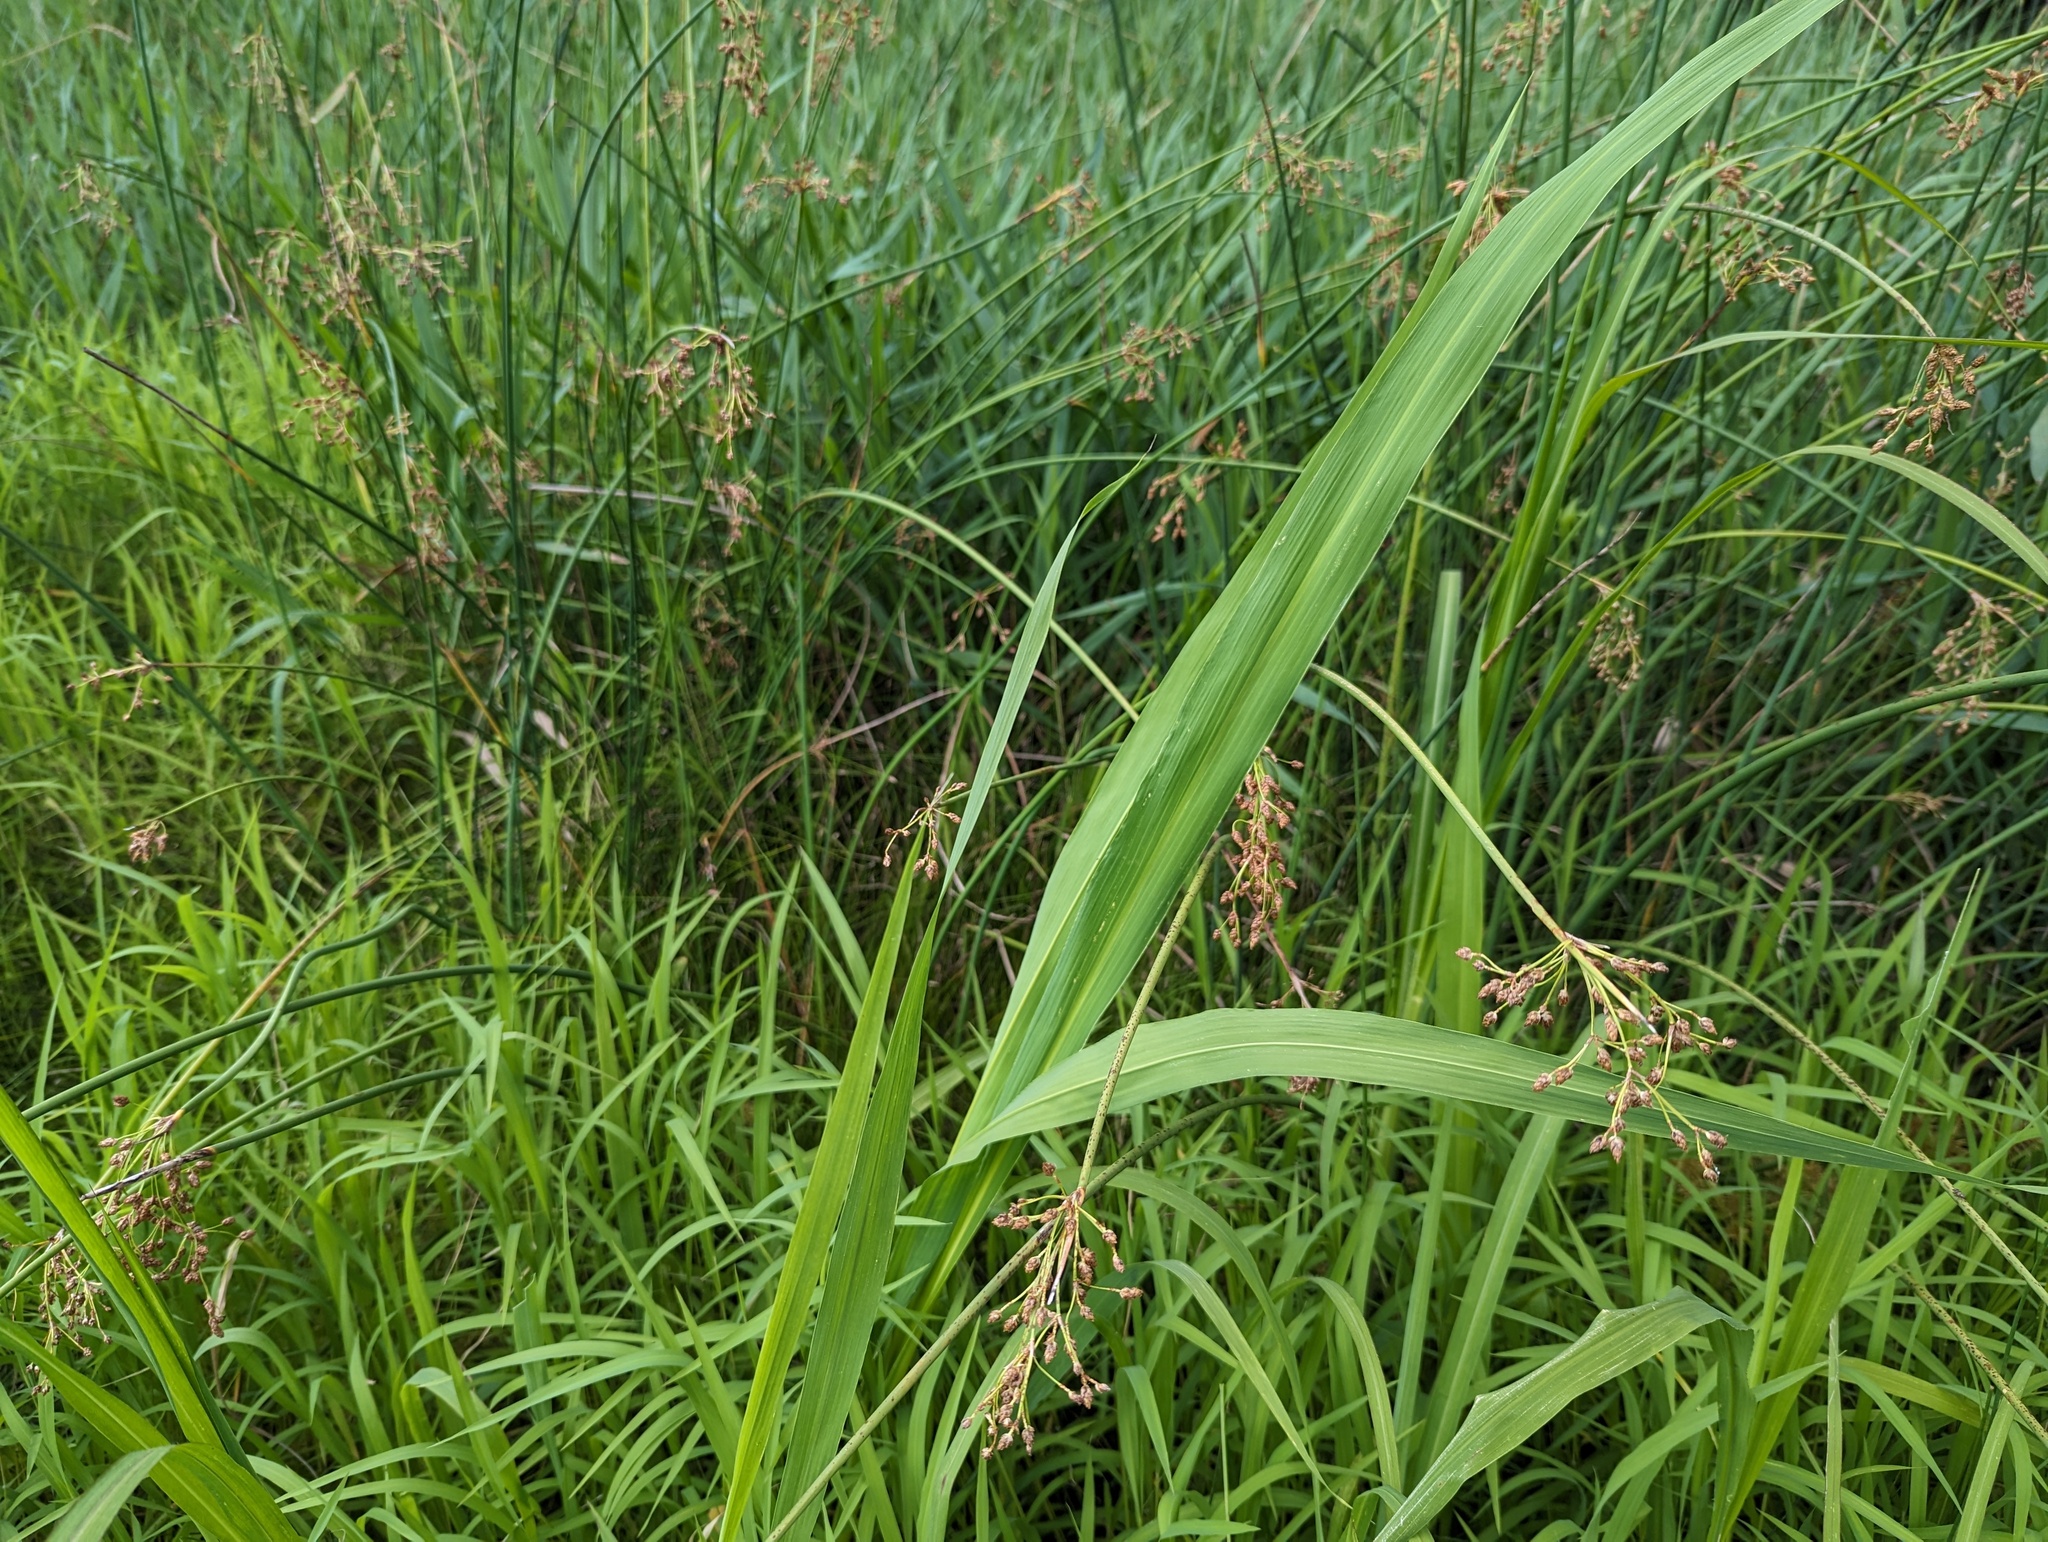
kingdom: Plantae
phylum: Tracheophyta
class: Liliopsida
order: Poales
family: Poaceae
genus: Zizania
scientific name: Zizania aquatica
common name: Annual wildrice
